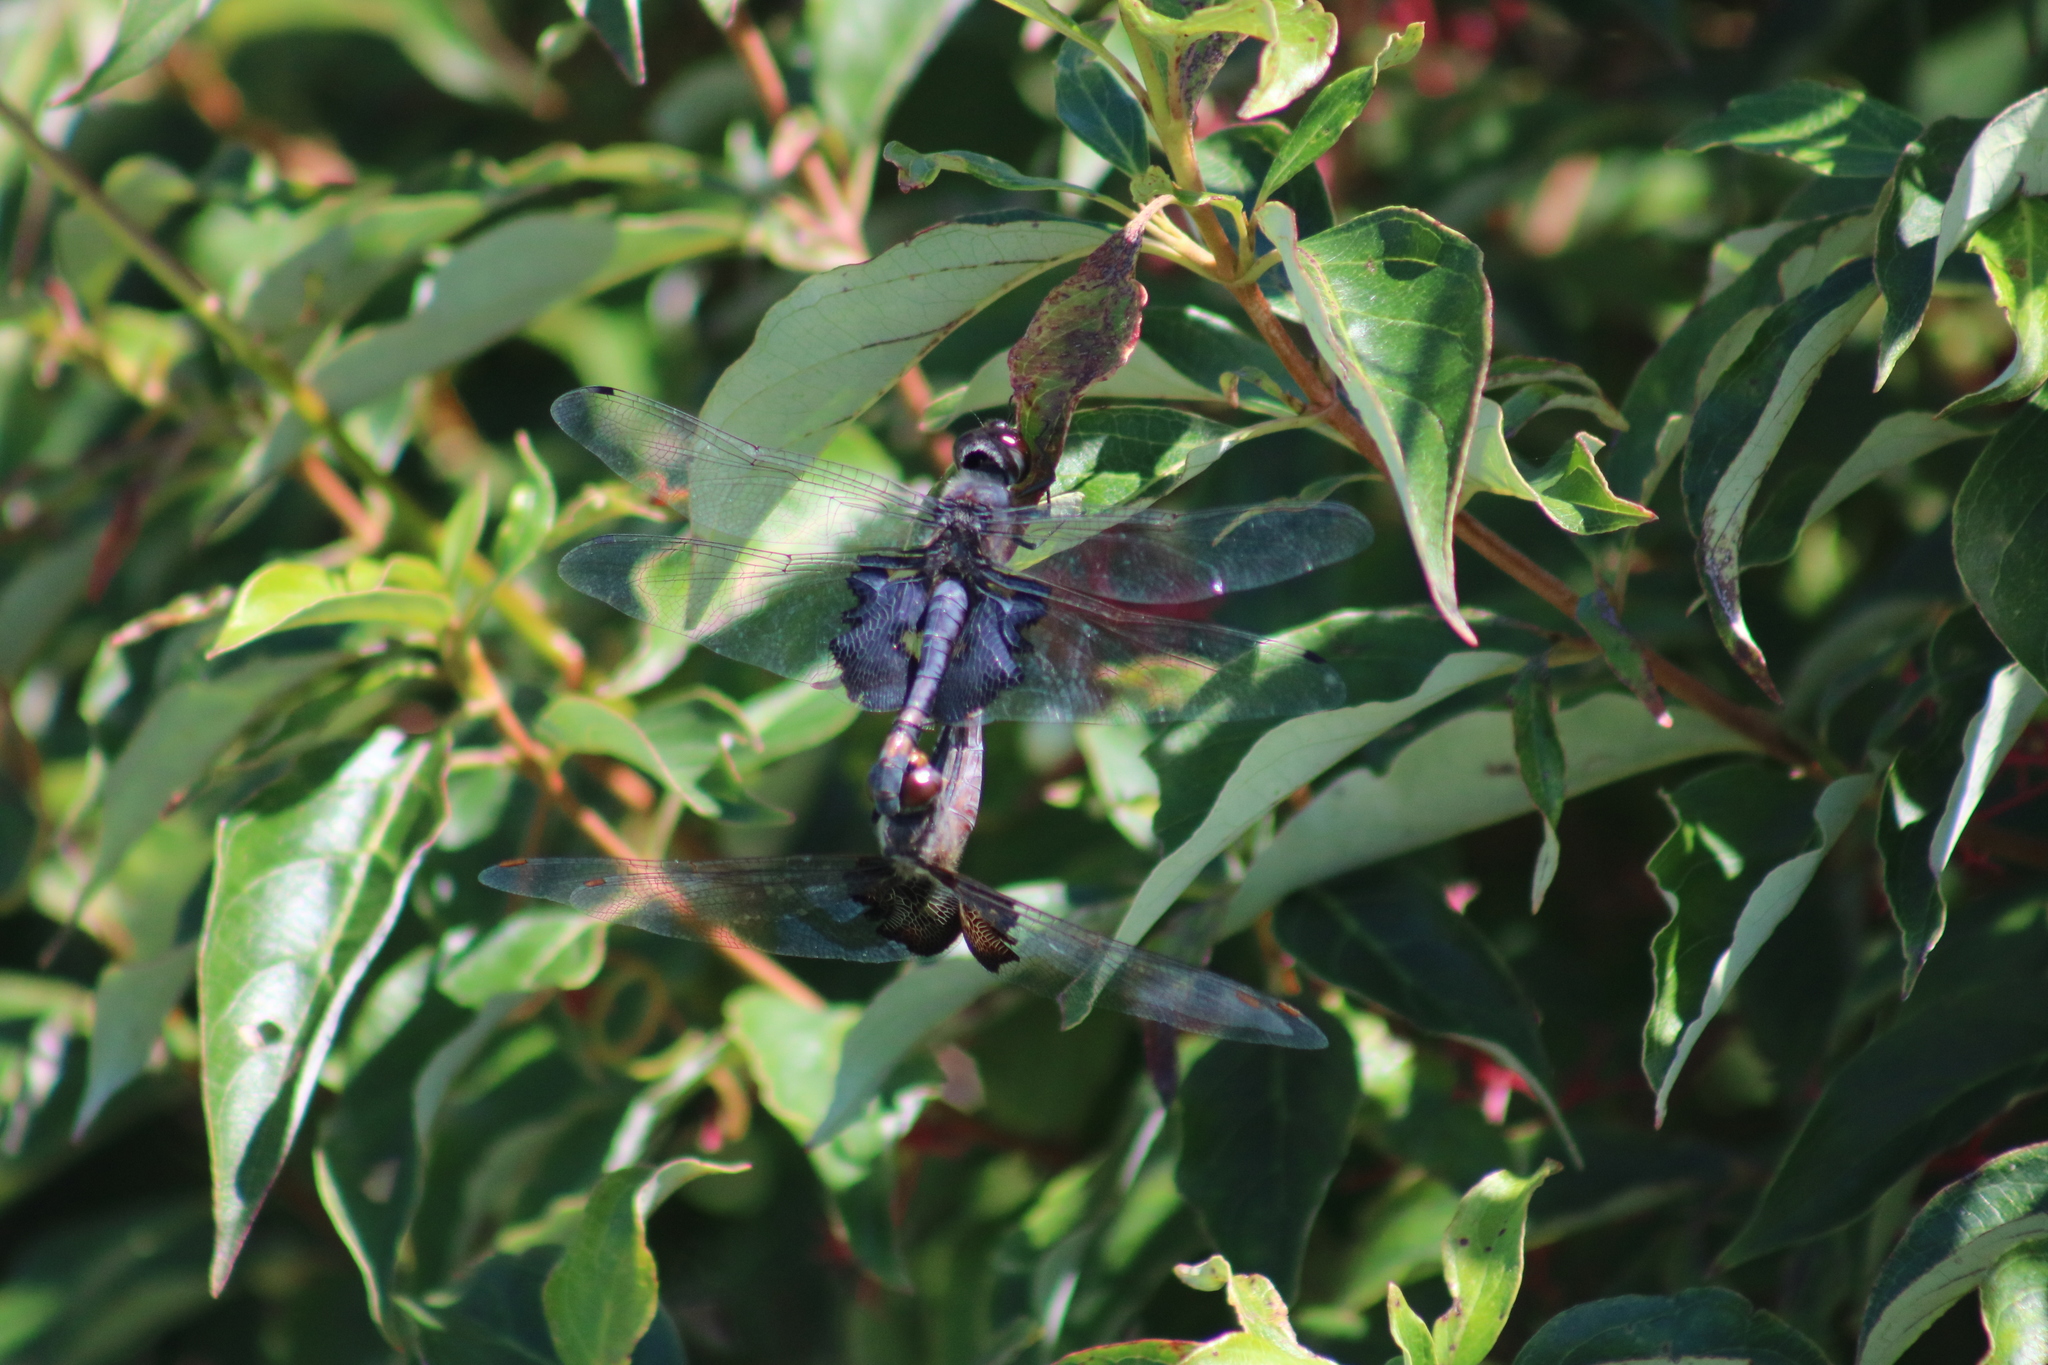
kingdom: Animalia
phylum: Arthropoda
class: Insecta
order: Odonata
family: Libellulidae
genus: Tramea
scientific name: Tramea lacerata
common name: Black saddlebags
